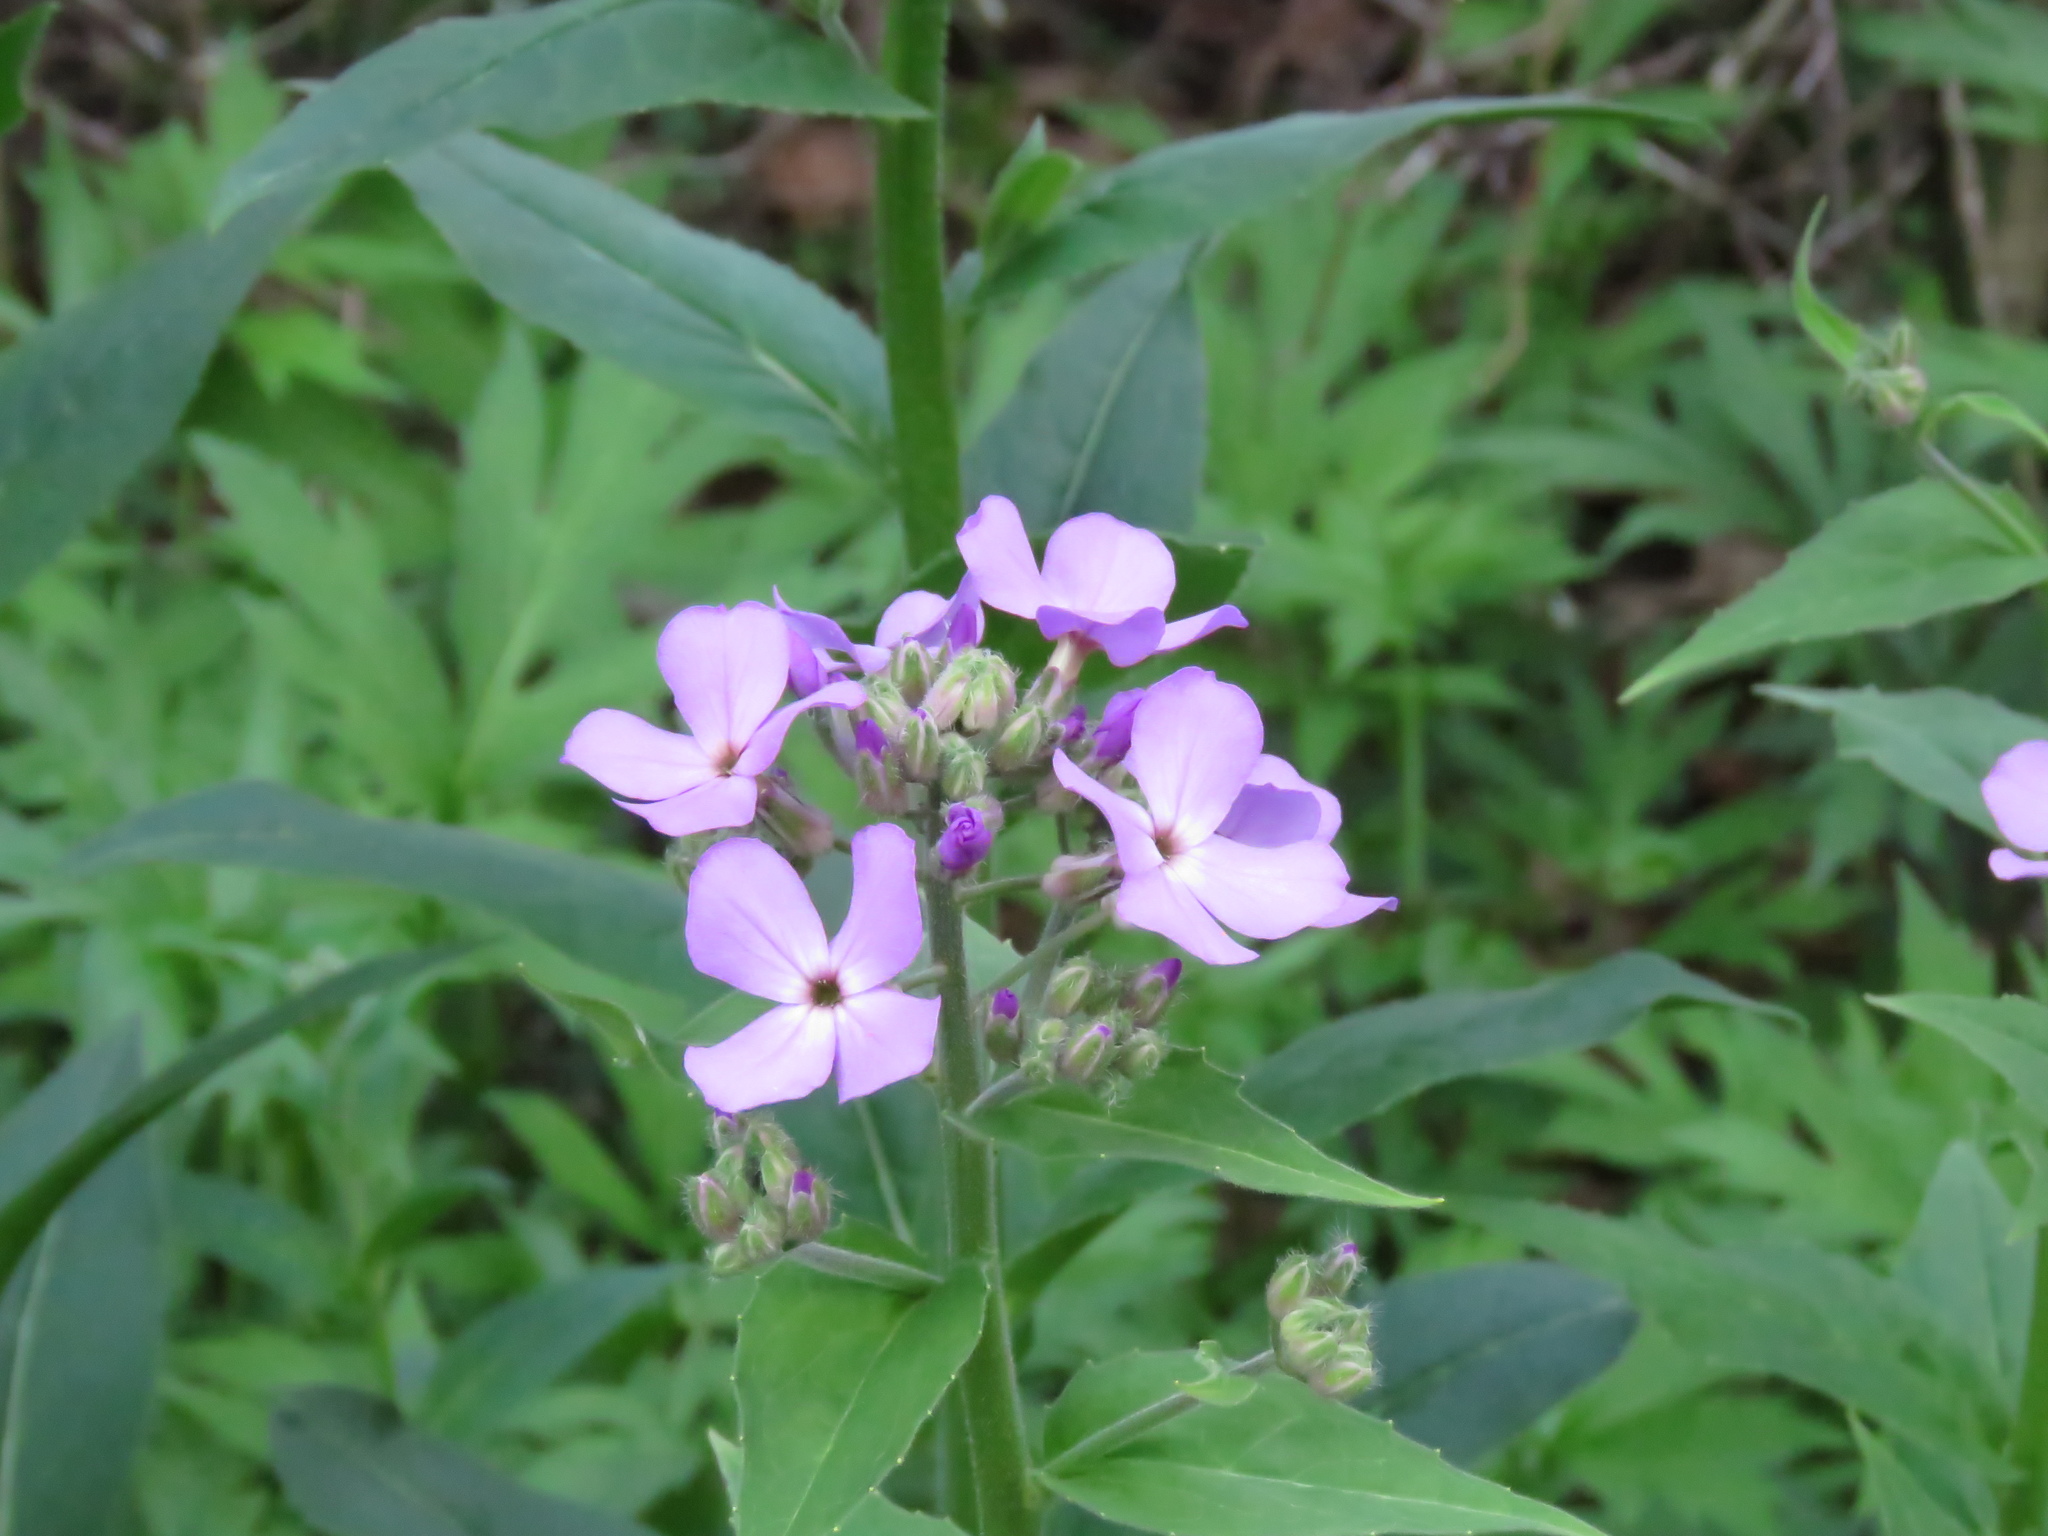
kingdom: Plantae
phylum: Tracheophyta
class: Magnoliopsida
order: Brassicales
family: Brassicaceae
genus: Hesperis
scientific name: Hesperis matronalis
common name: Dame's-violet
